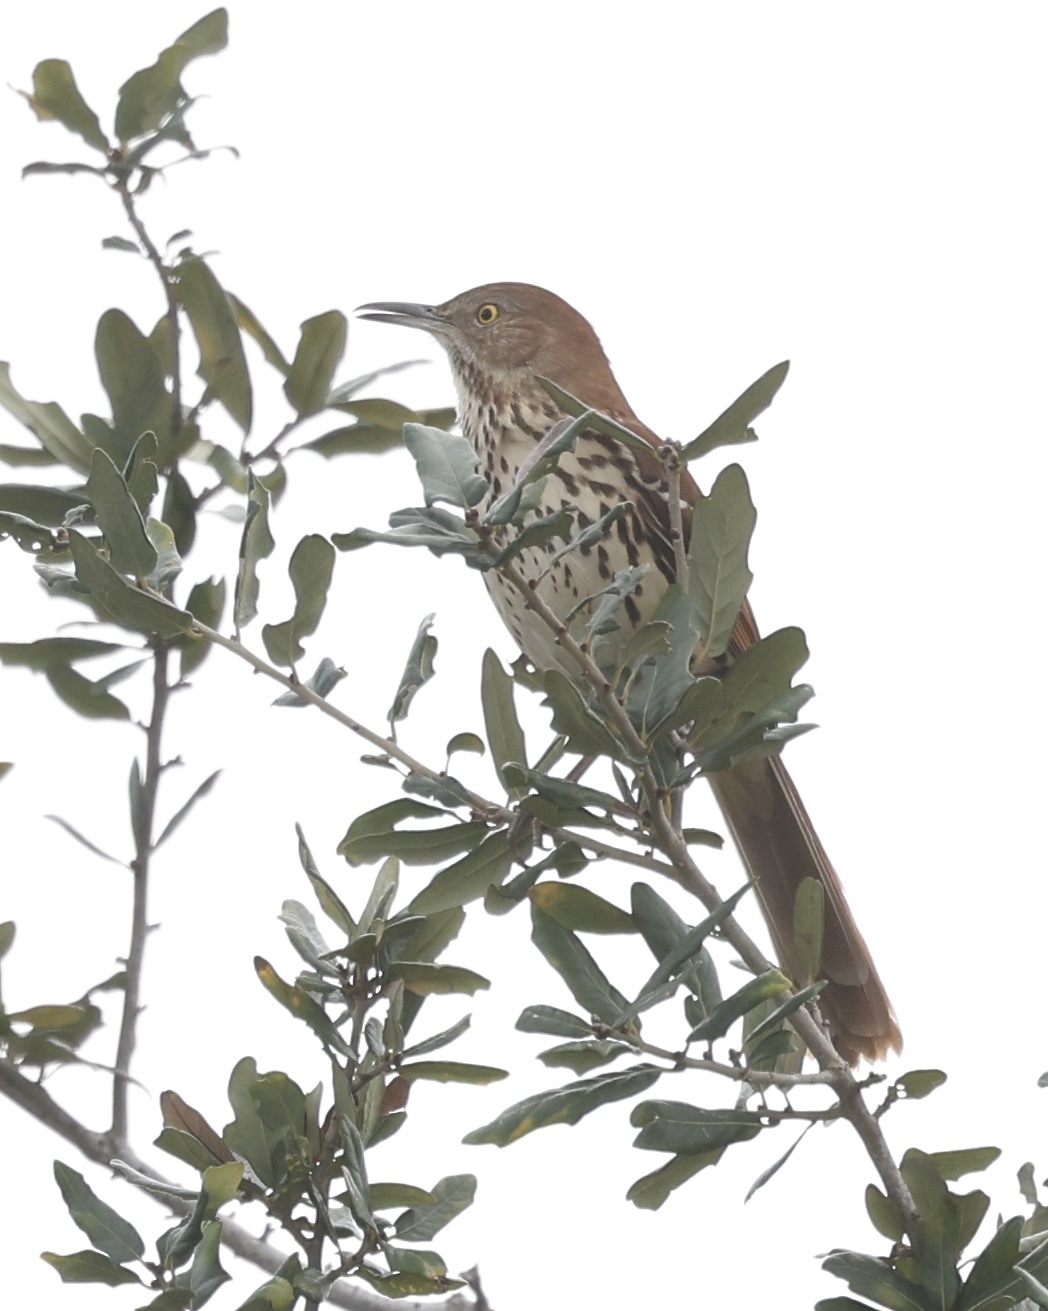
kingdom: Animalia
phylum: Chordata
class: Aves
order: Passeriformes
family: Mimidae
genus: Toxostoma
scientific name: Toxostoma rufum
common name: Brown thrasher
